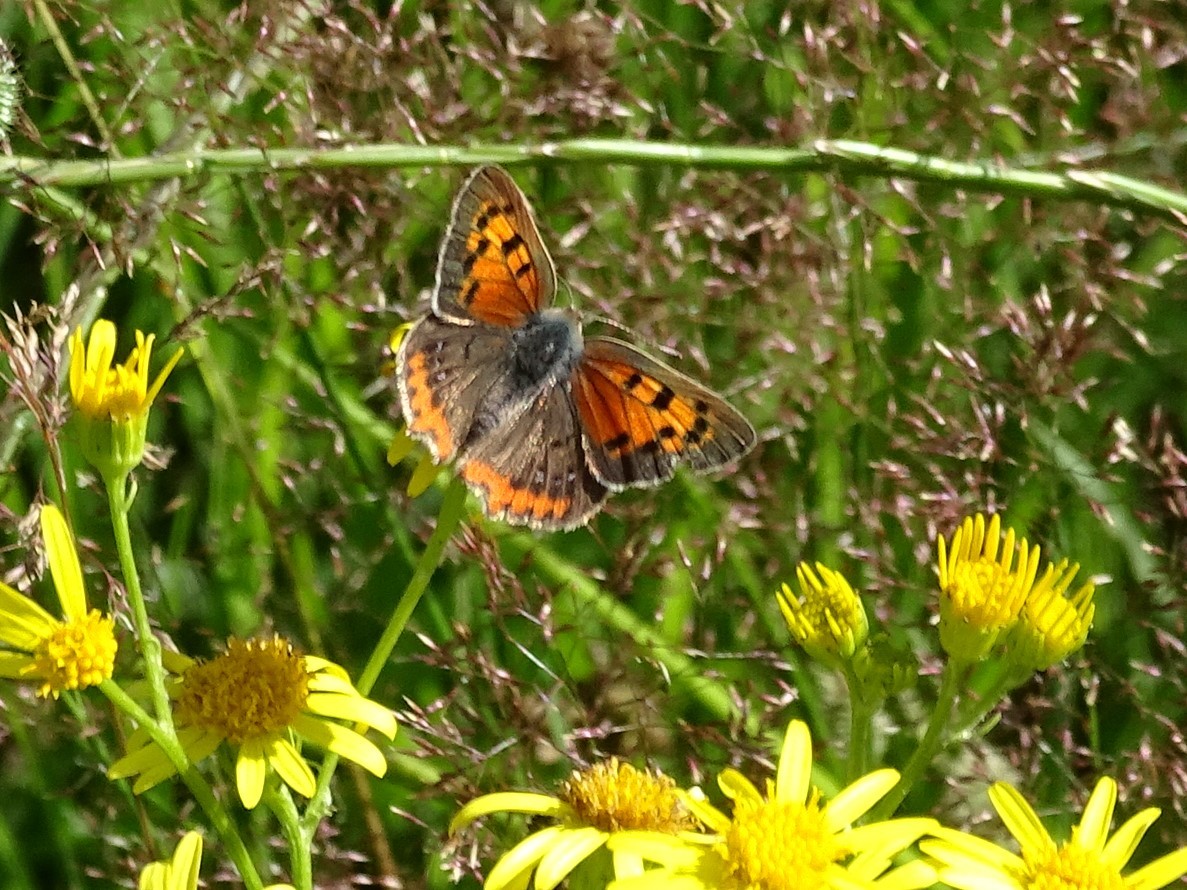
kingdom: Animalia
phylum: Arthropoda
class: Insecta
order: Lepidoptera
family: Lycaenidae
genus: Lycaena
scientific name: Lycaena phlaeas
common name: Small copper
